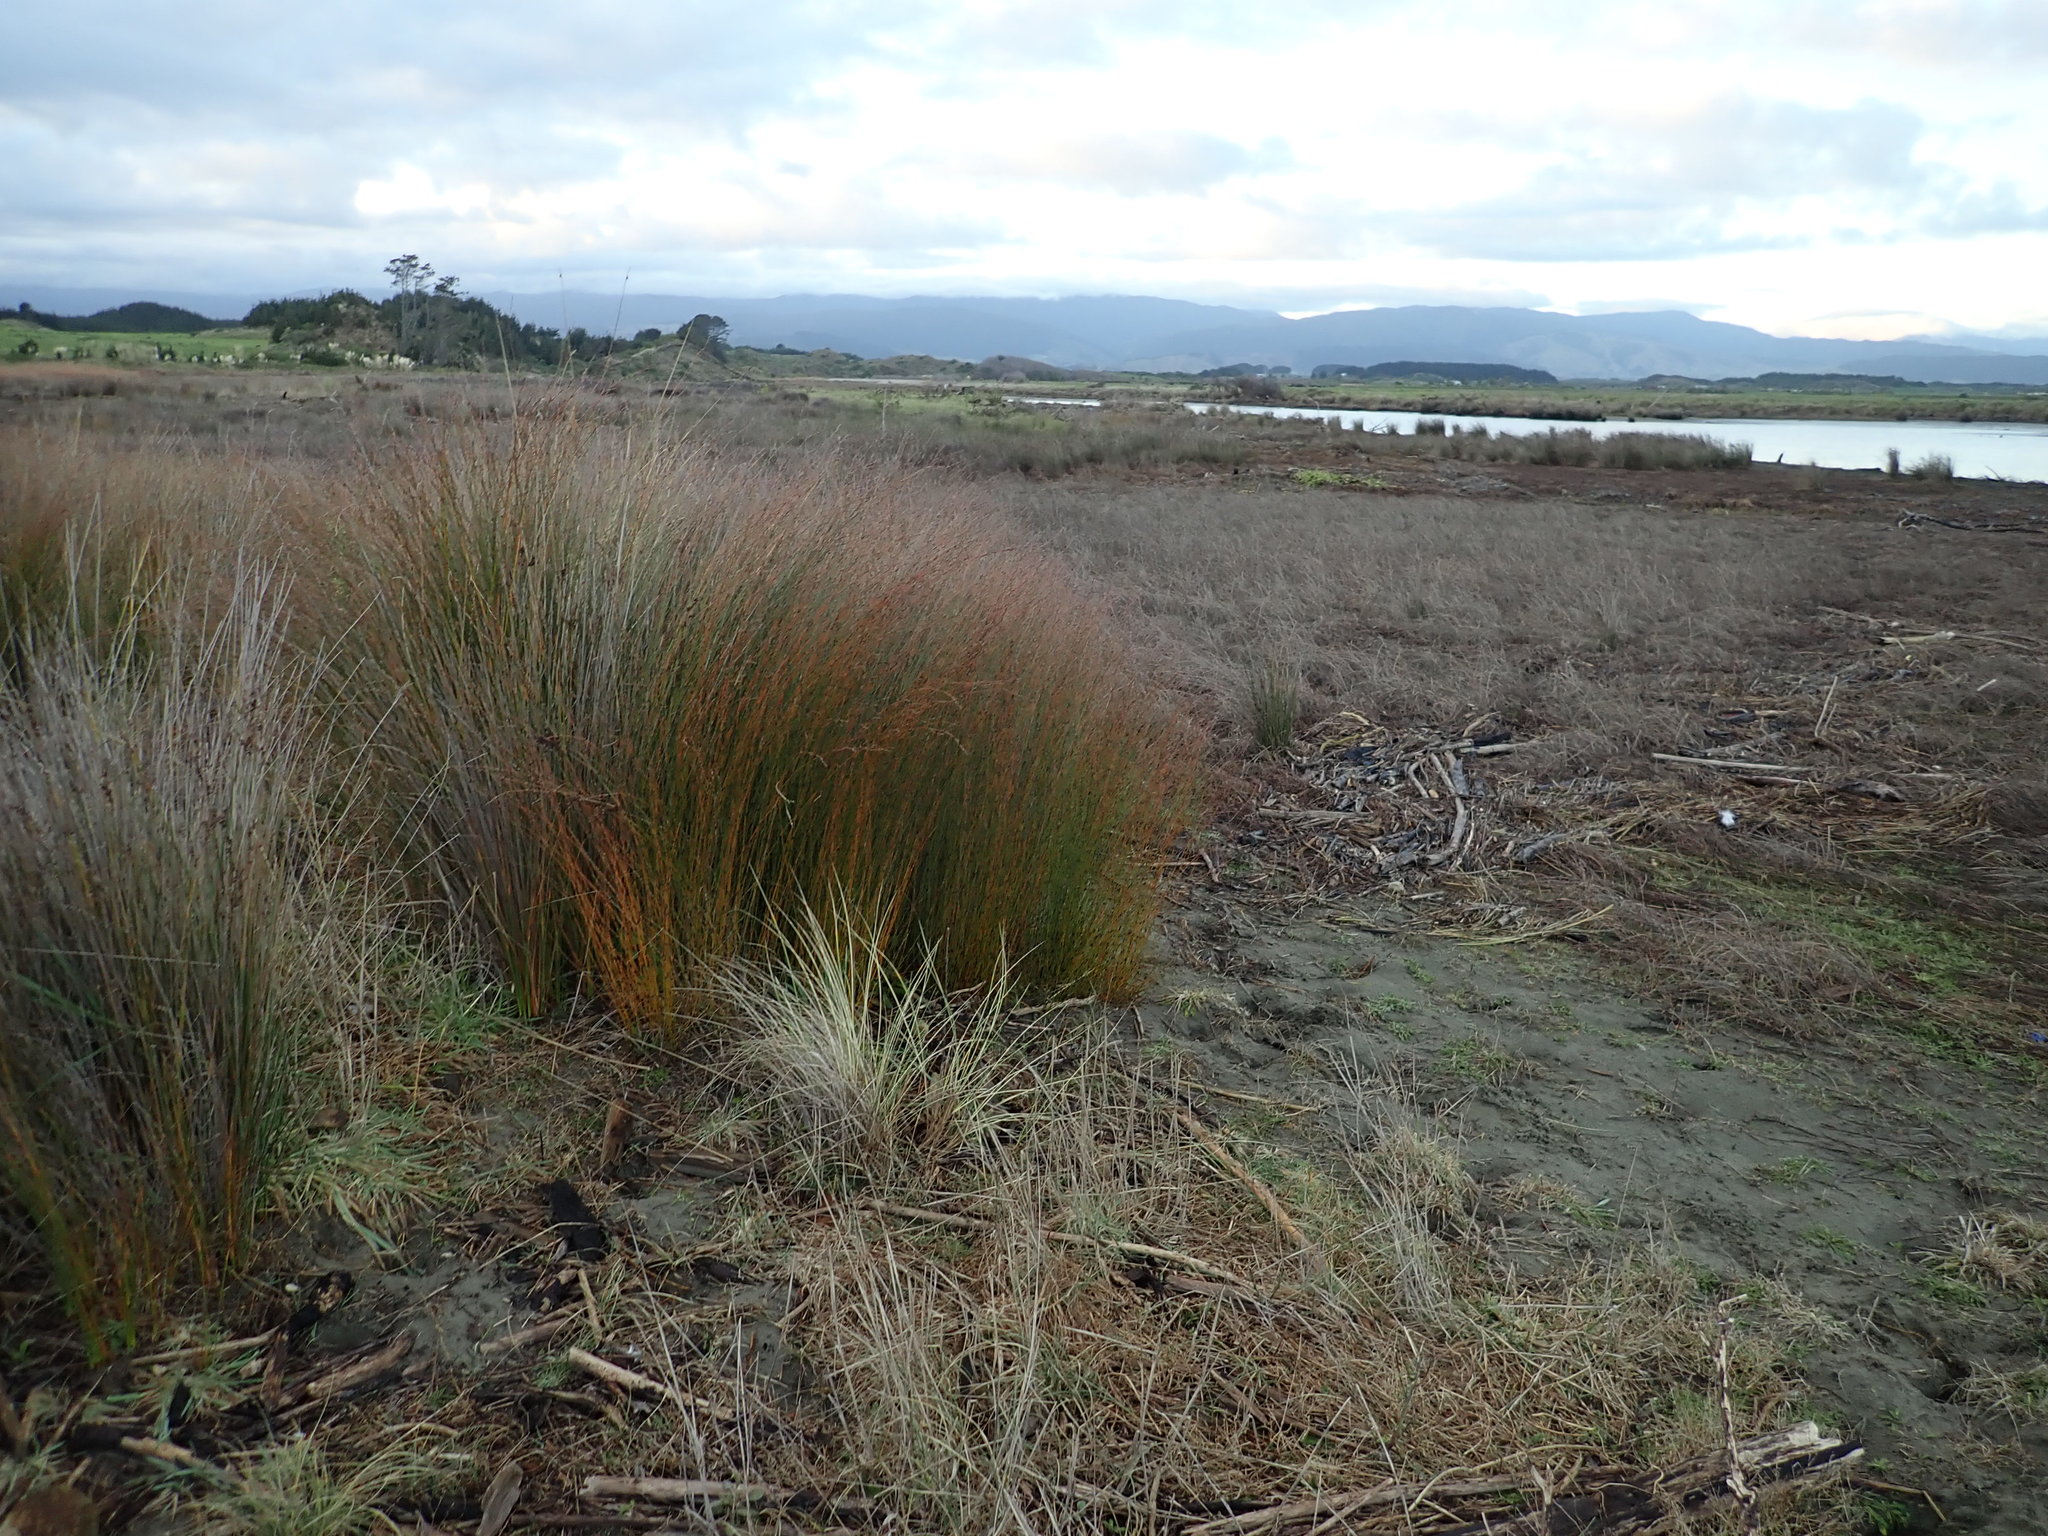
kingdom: Plantae
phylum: Tracheophyta
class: Liliopsida
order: Poales
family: Restionaceae
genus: Apodasmia
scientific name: Apodasmia similis
